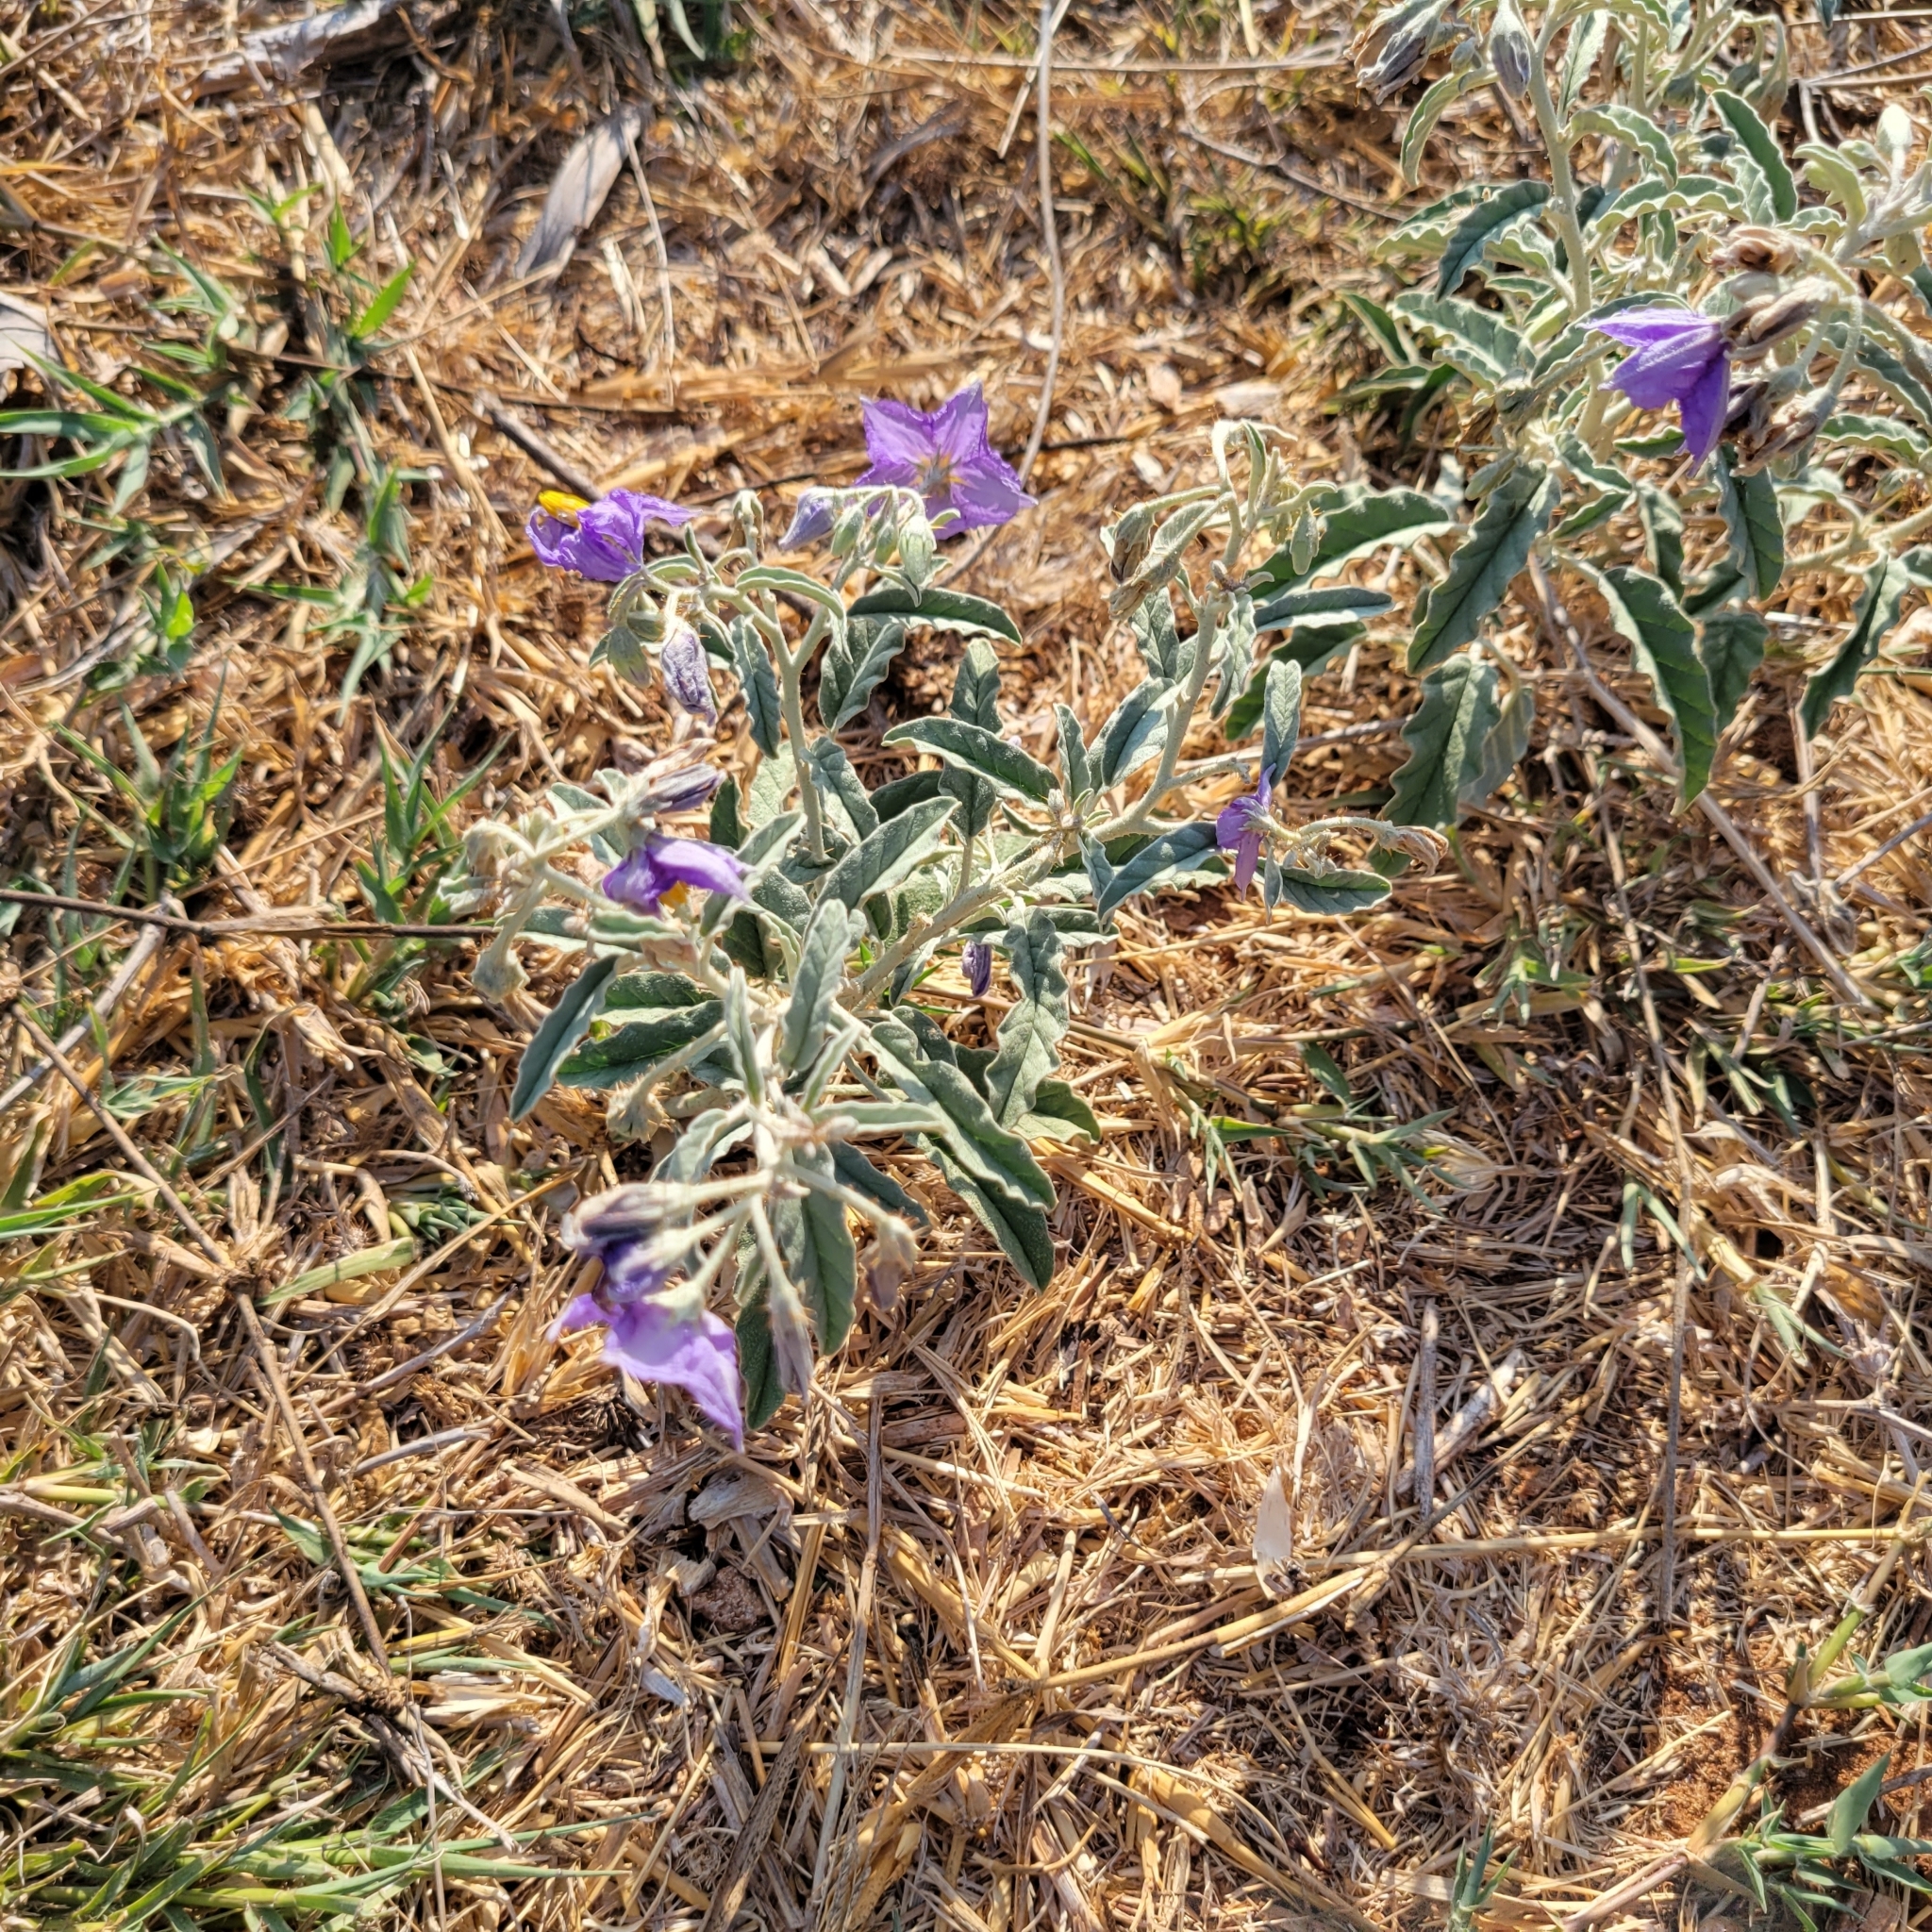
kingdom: Plantae
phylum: Tracheophyta
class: Magnoliopsida
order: Solanales
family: Solanaceae
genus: Solanum
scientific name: Solanum elaeagnifolium
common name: Silverleaf nightshade
